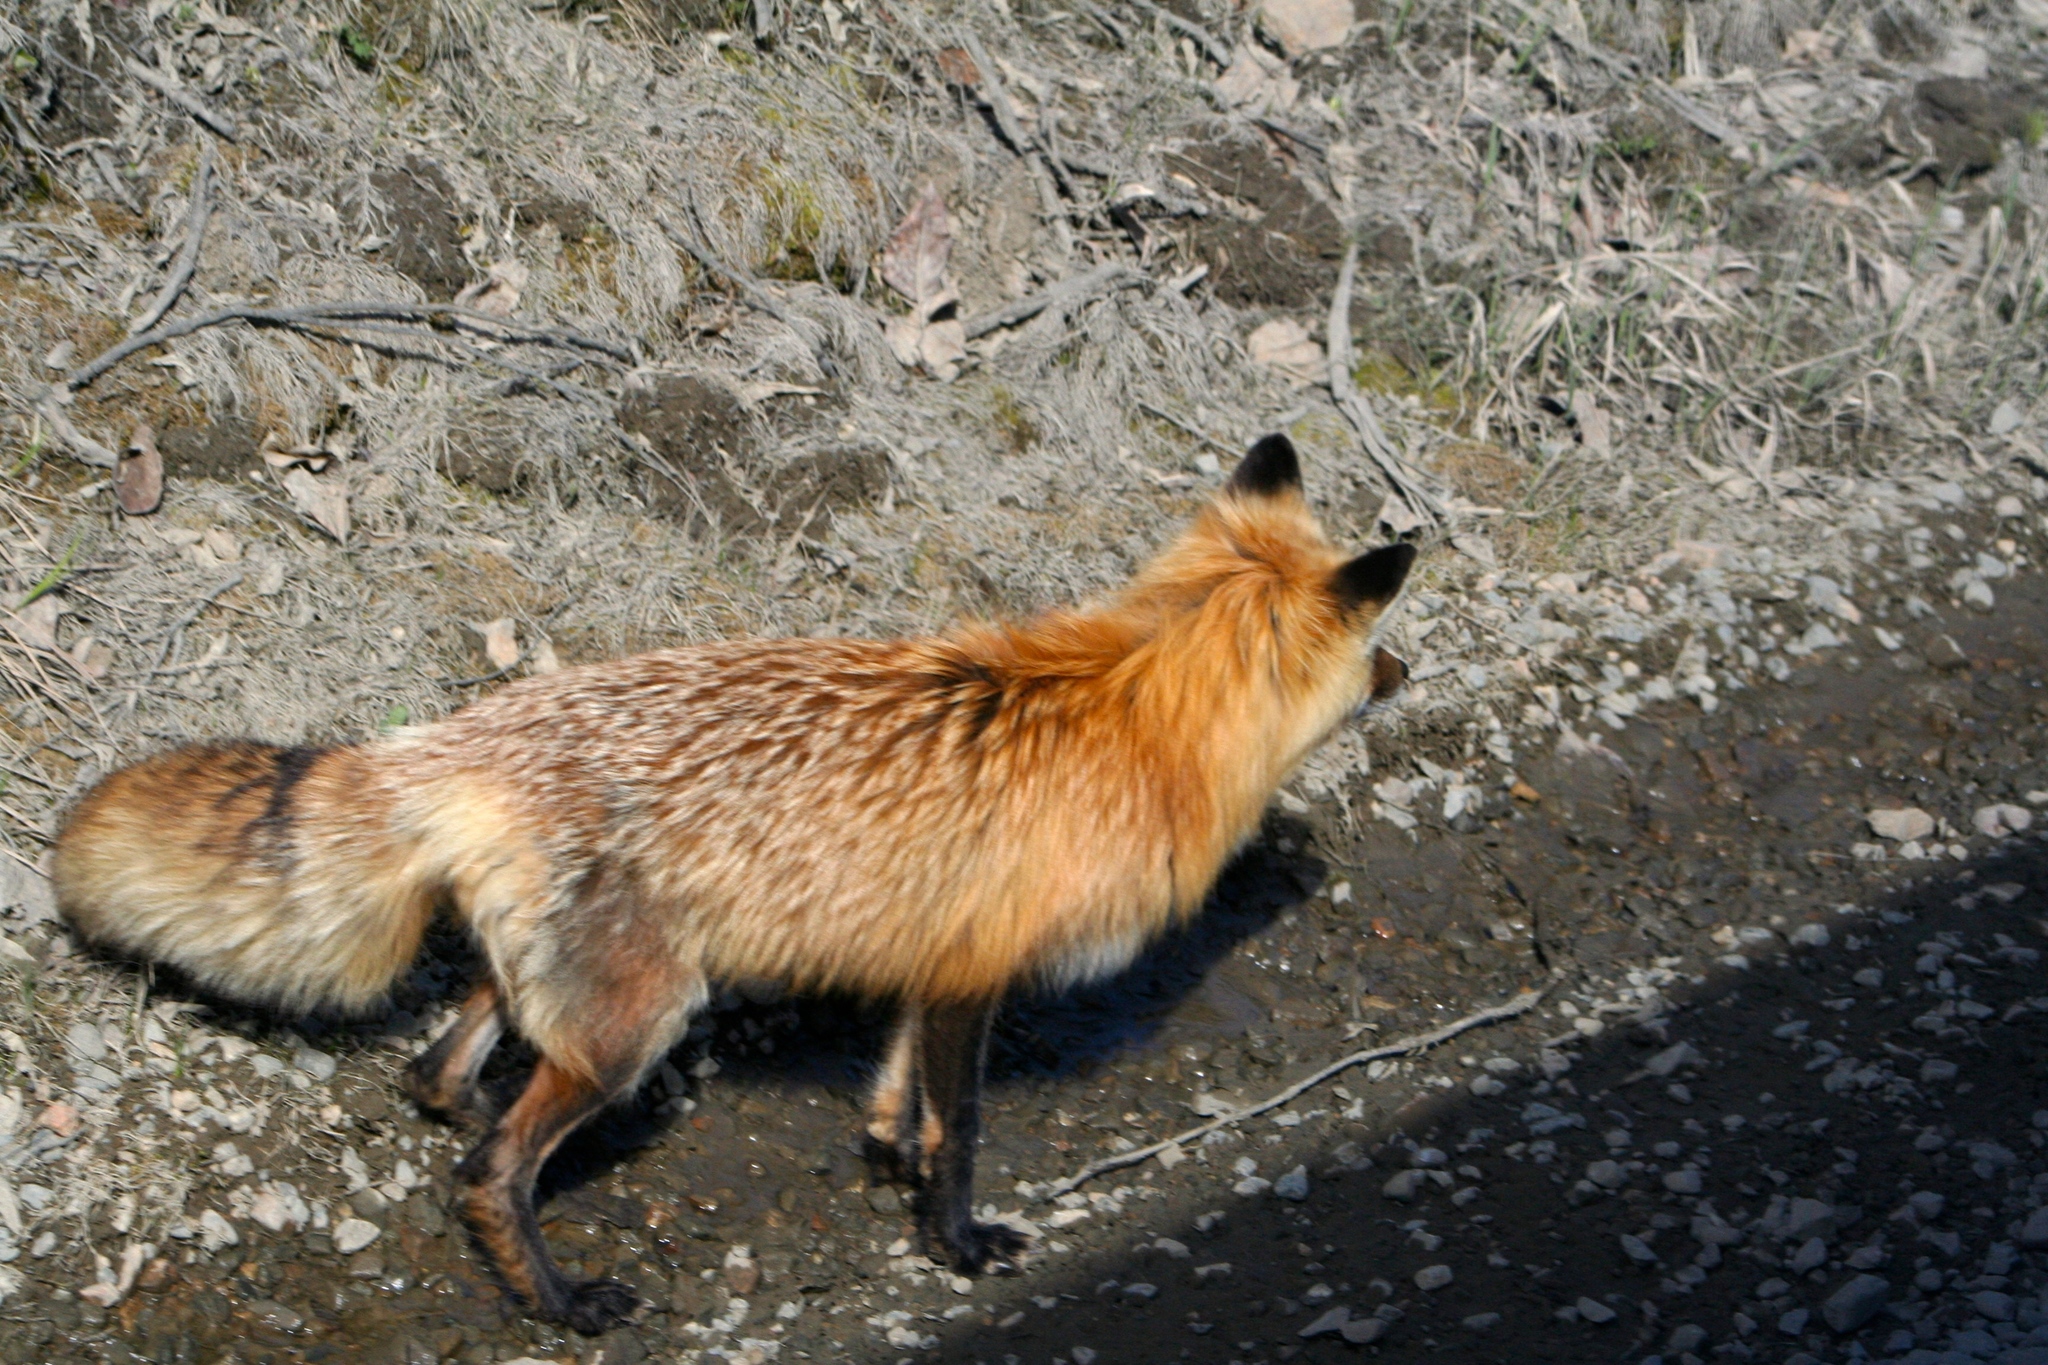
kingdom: Animalia
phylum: Chordata
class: Mammalia
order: Carnivora
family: Canidae
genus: Vulpes
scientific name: Vulpes vulpes
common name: Red fox
